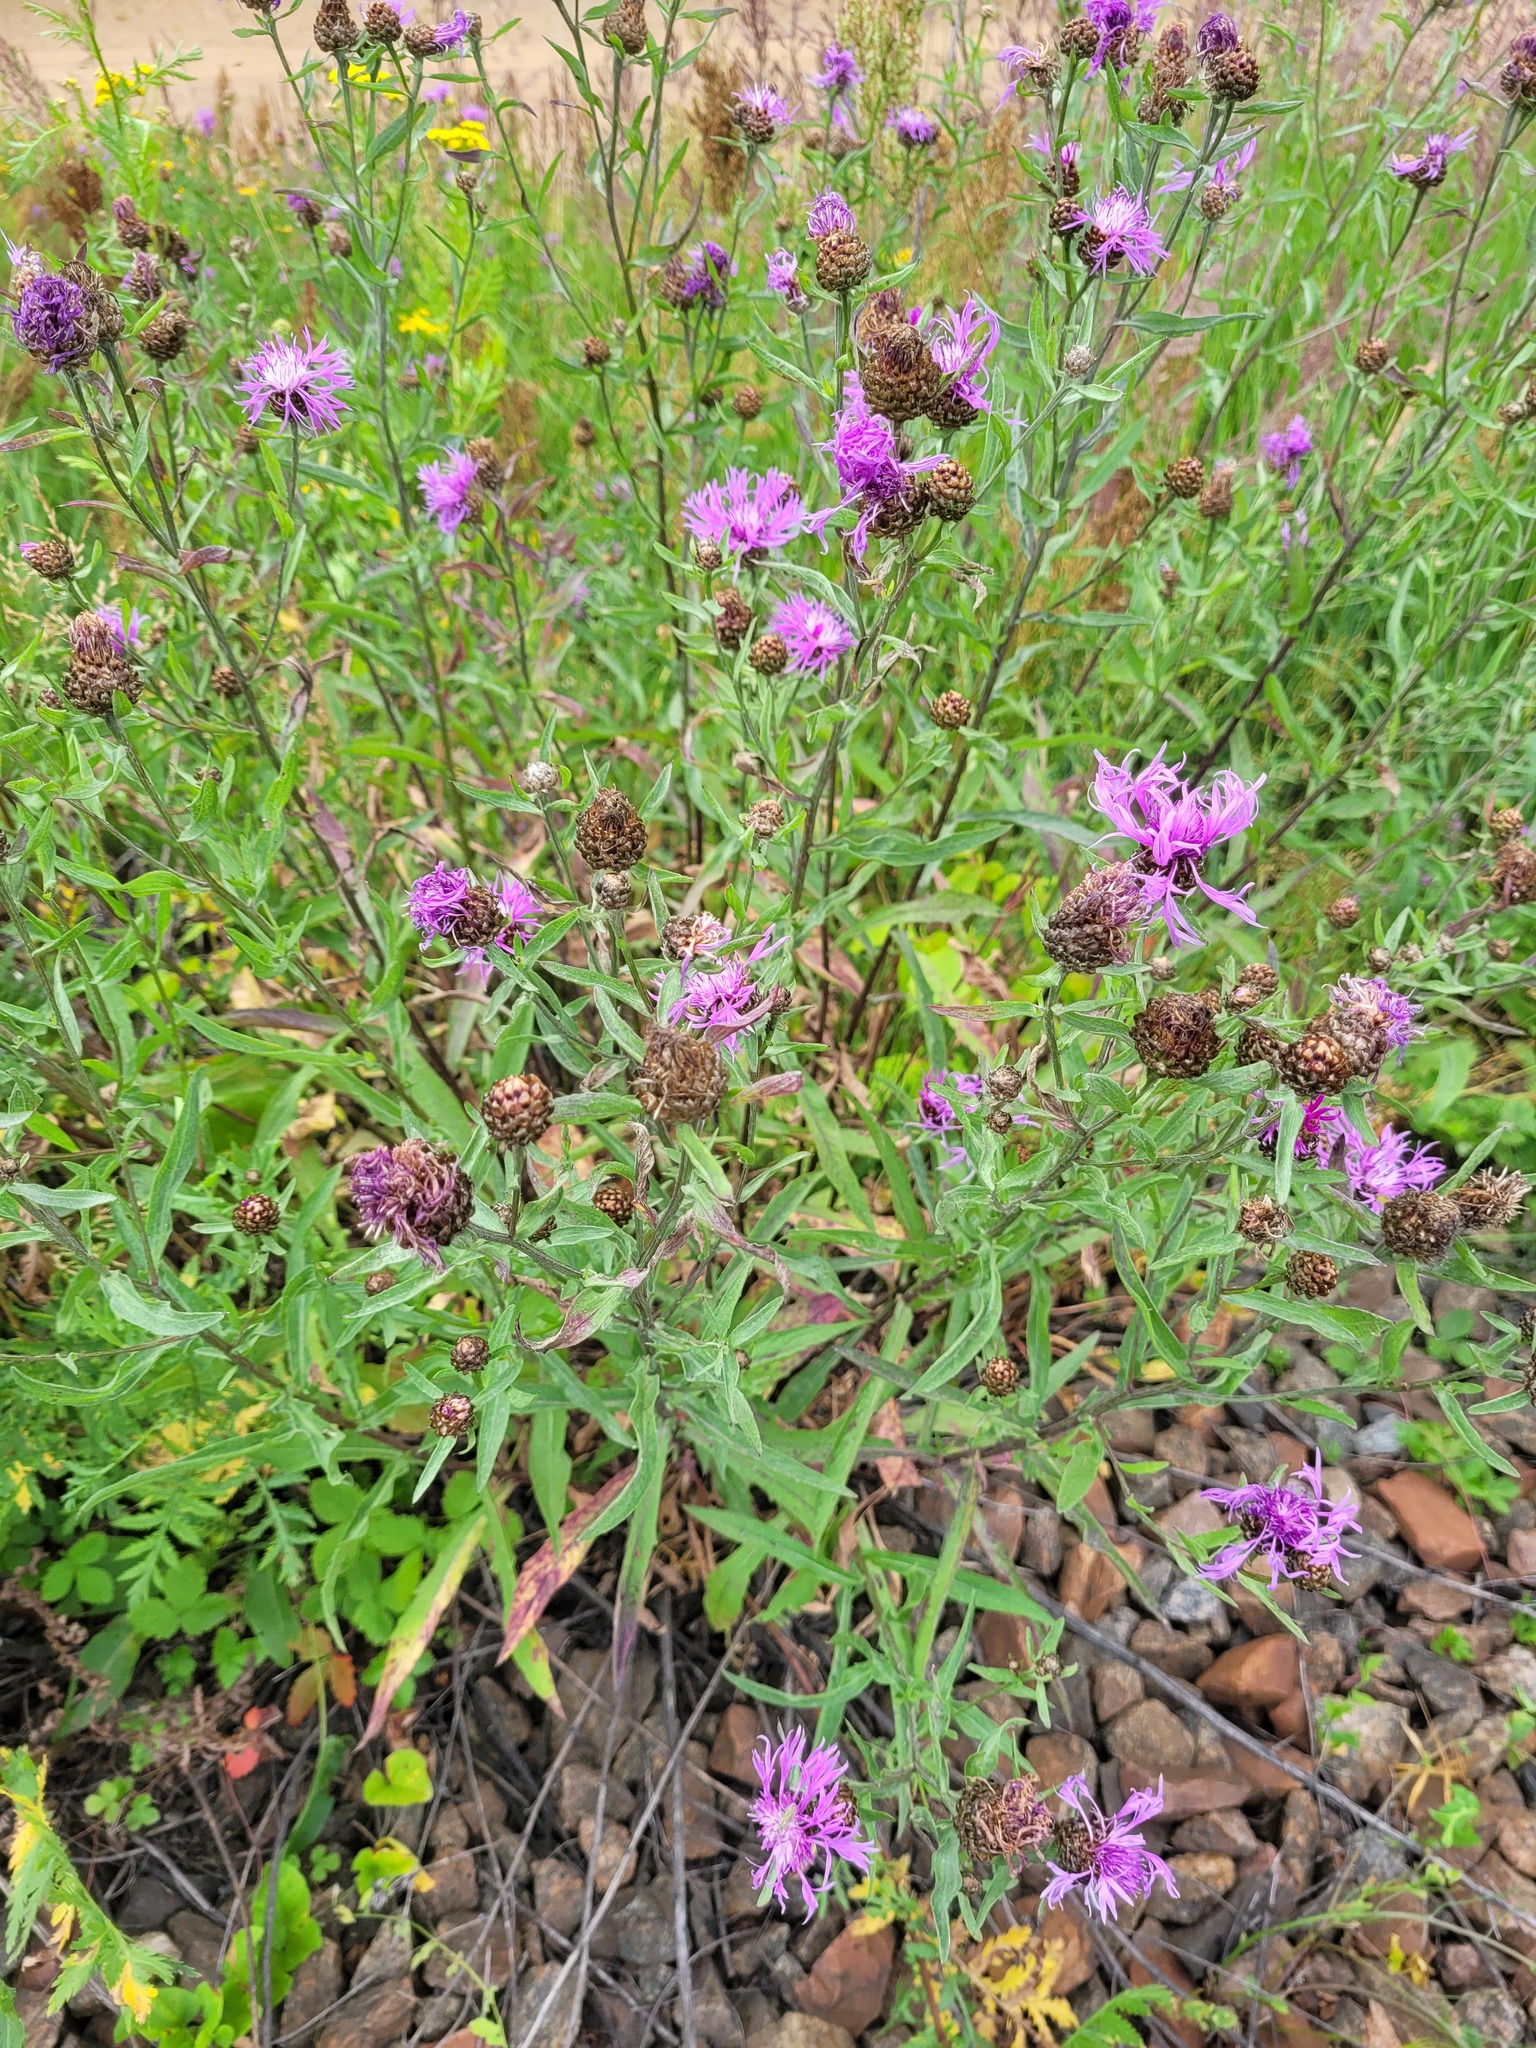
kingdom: Plantae
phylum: Tracheophyta
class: Magnoliopsida
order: Asterales
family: Asteraceae
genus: Centaurea
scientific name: Centaurea jacea
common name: Brown knapweed
